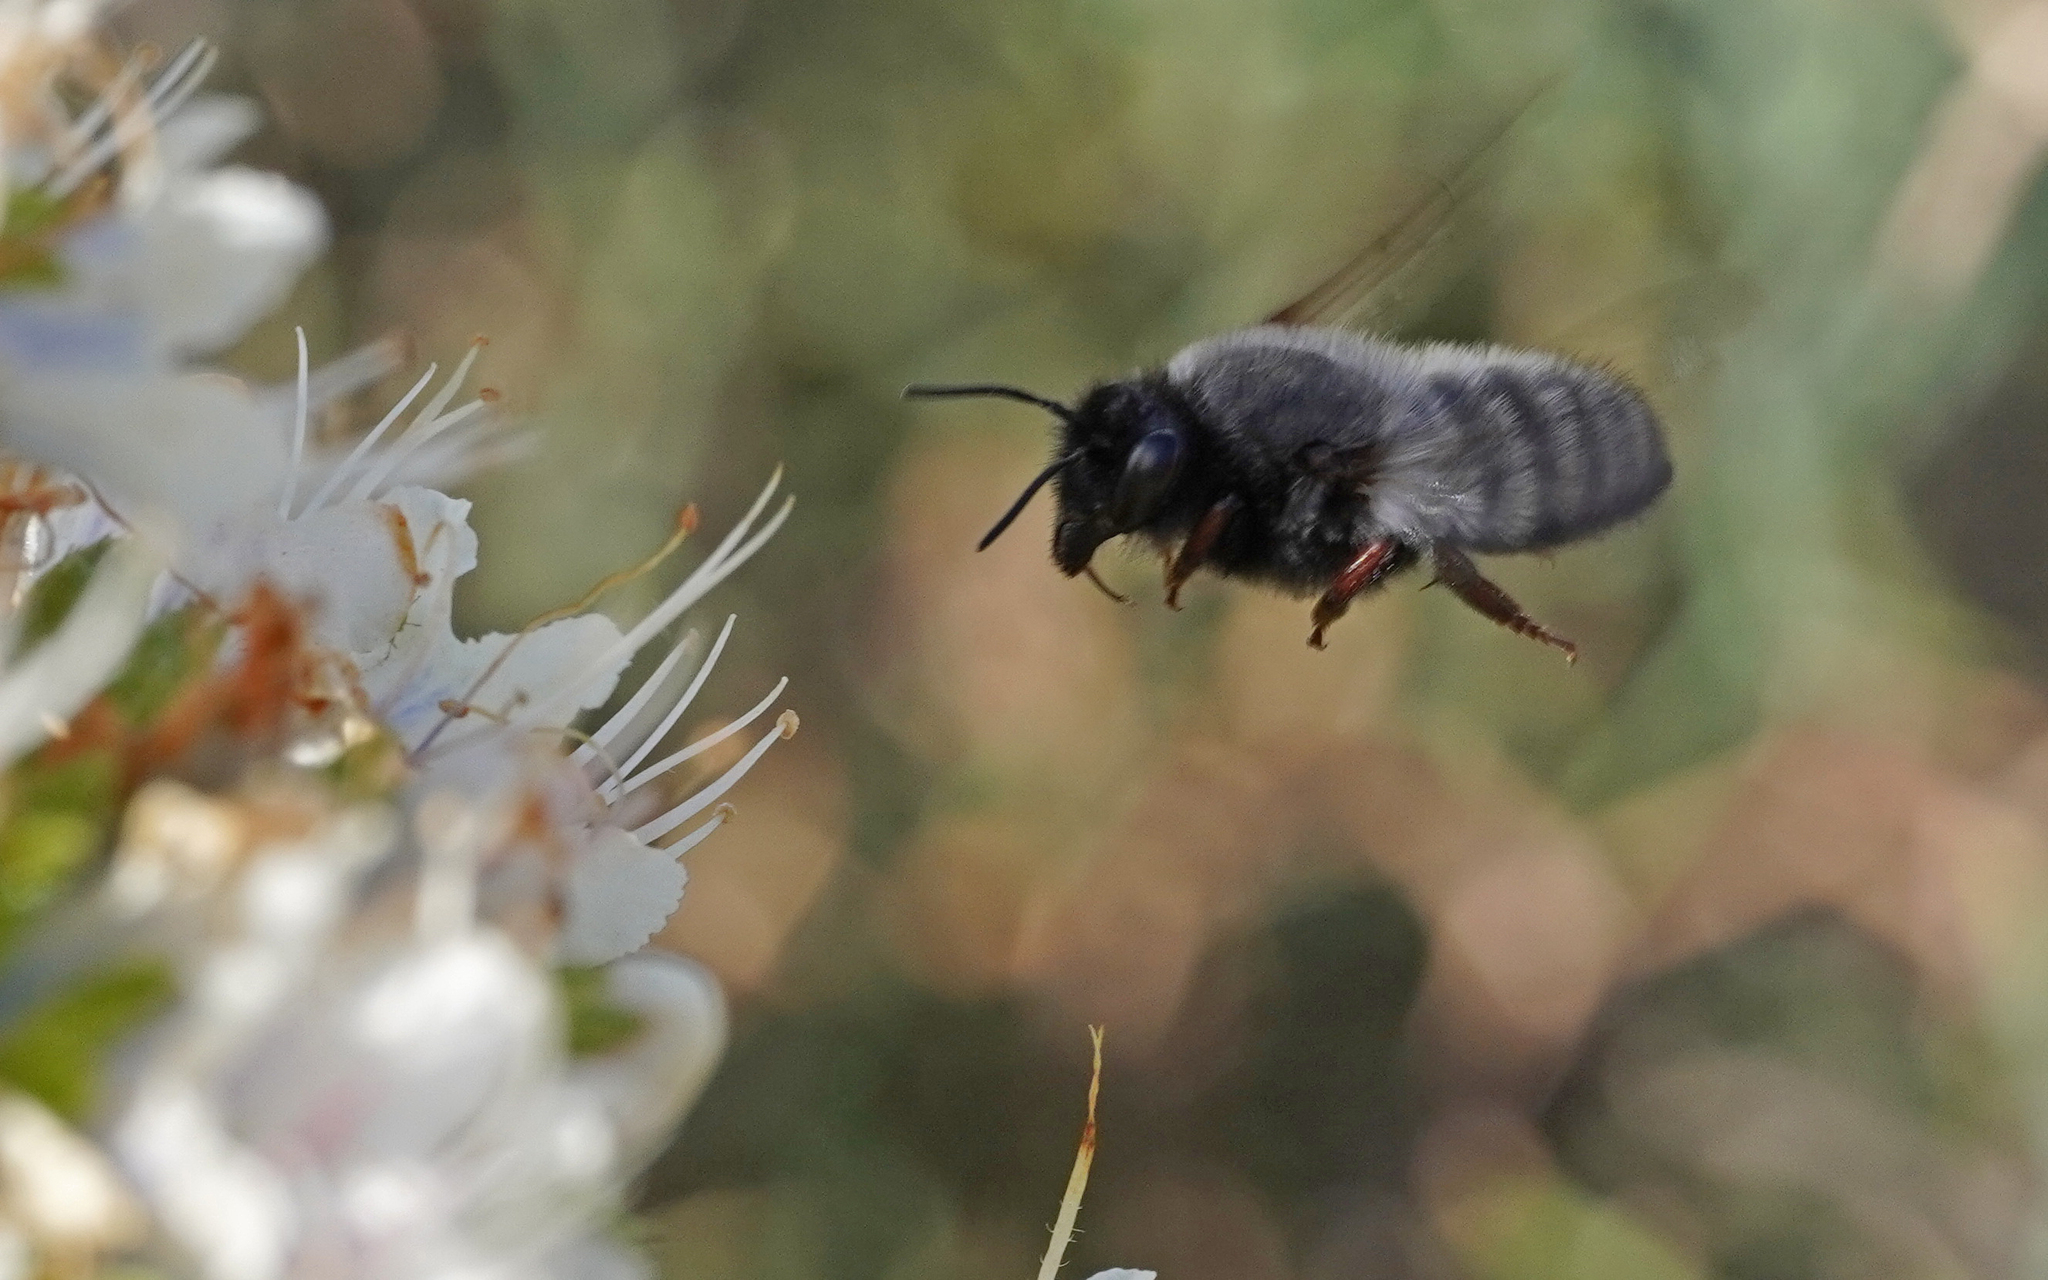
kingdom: Animalia
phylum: Arthropoda
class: Insecta
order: Hymenoptera
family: Megachilidae
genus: Megachile
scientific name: Megachile canescens
